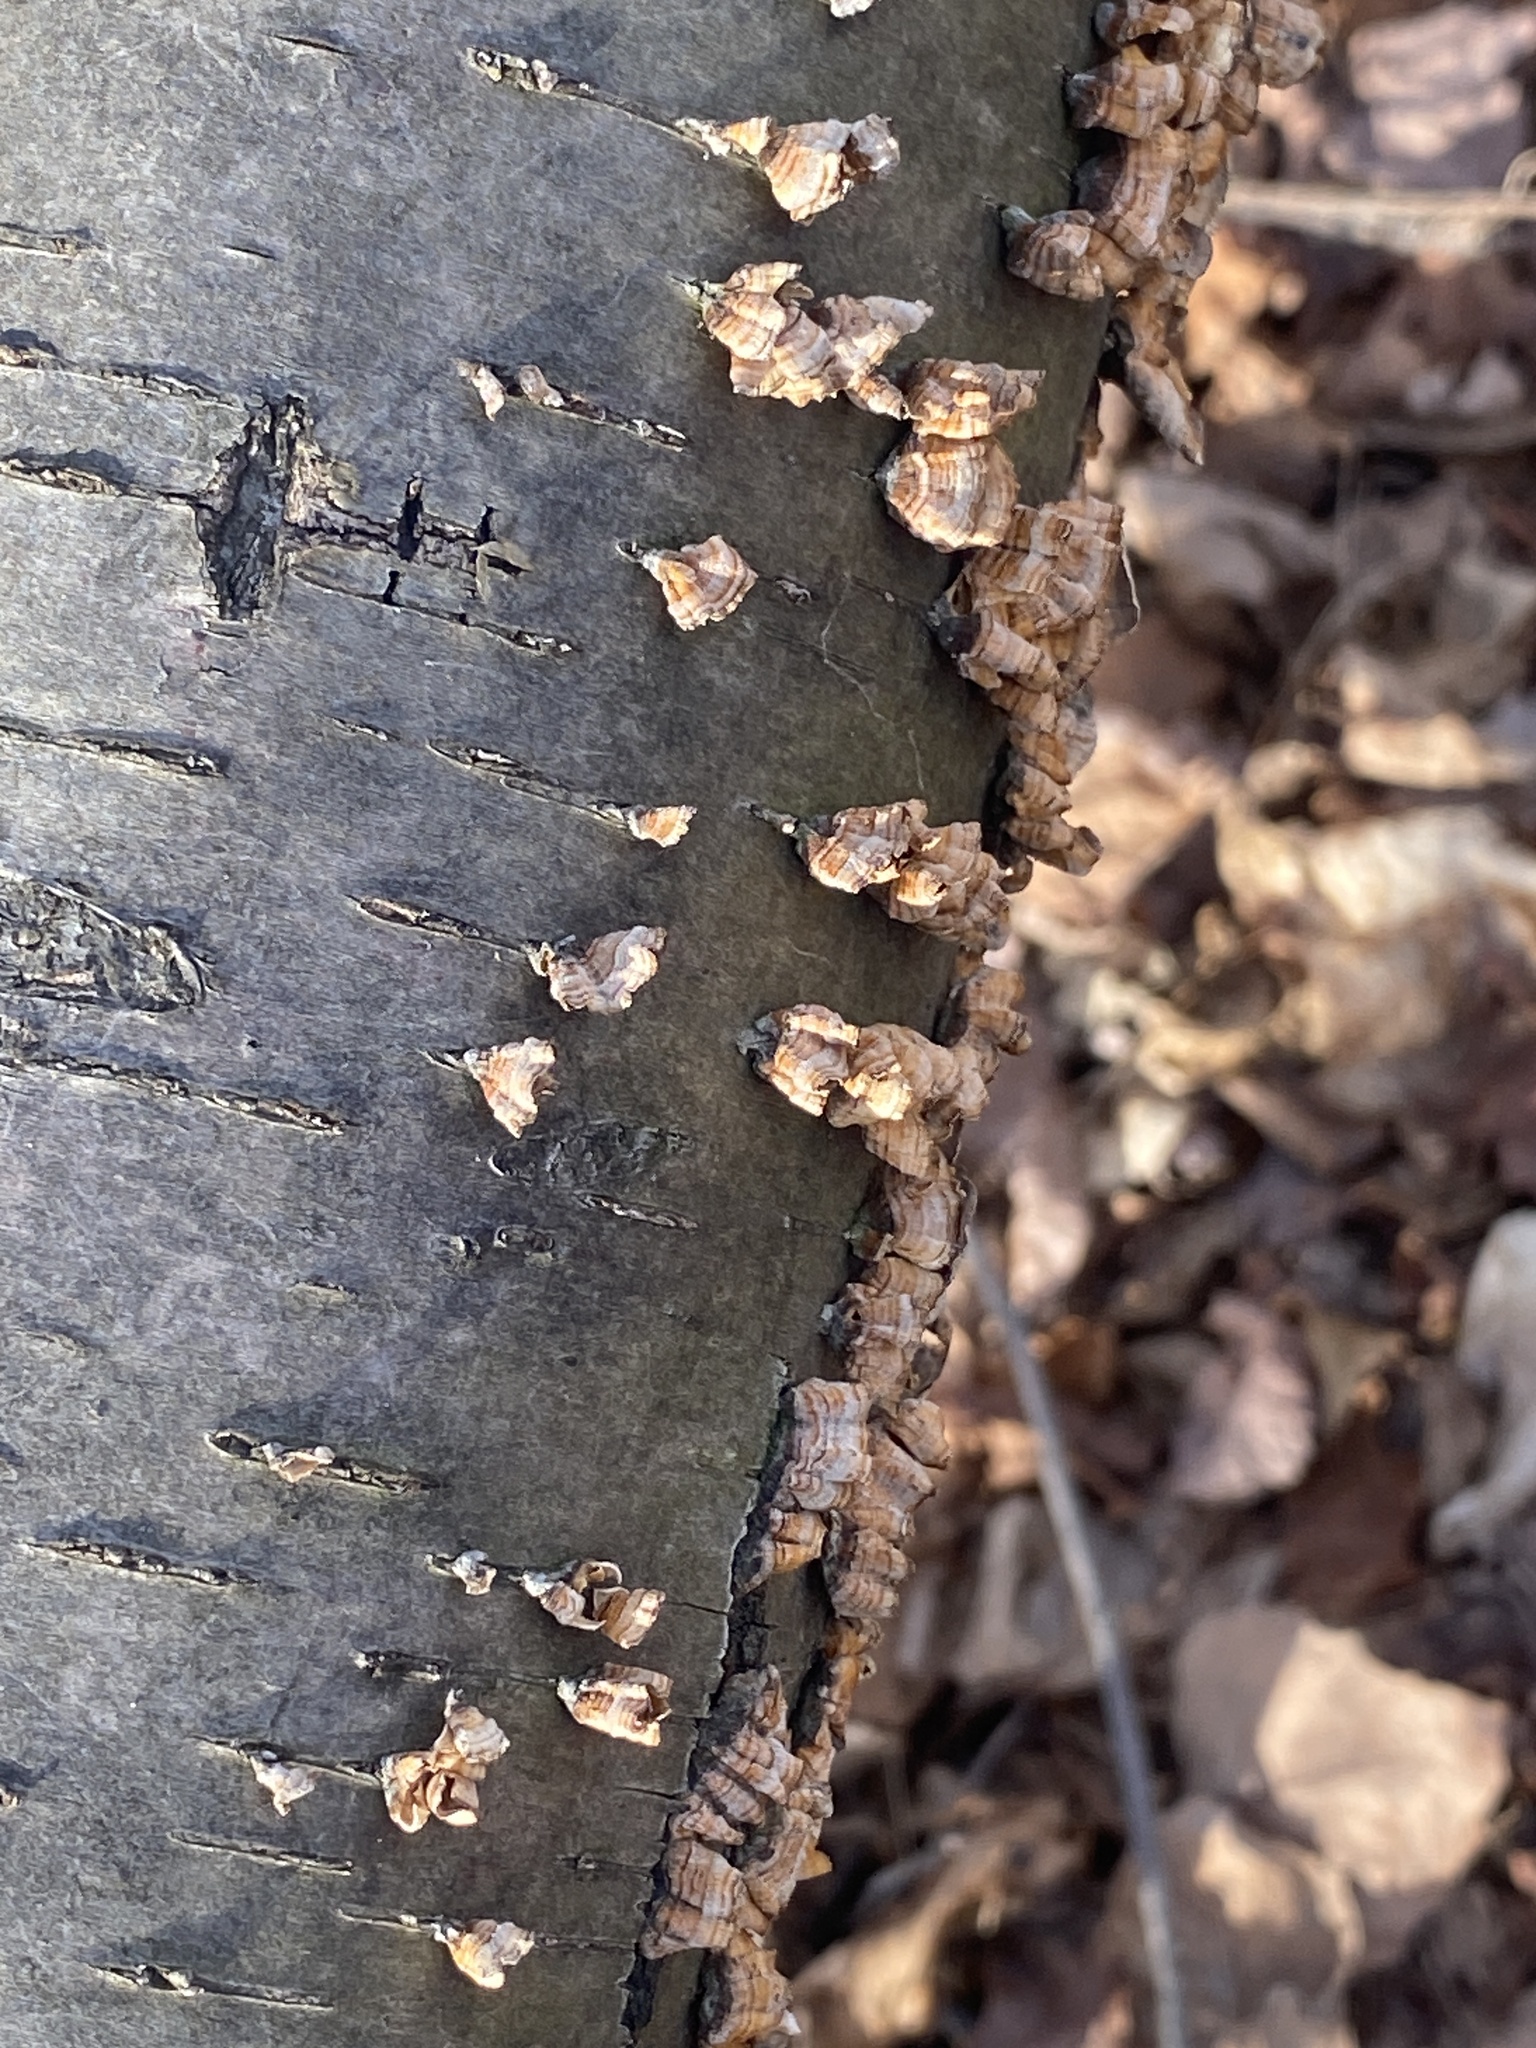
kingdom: Fungi
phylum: Basidiomycota
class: Agaricomycetes
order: Russulales
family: Stereaceae
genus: Stereum
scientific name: Stereum complicatum
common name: Crowded parchment
